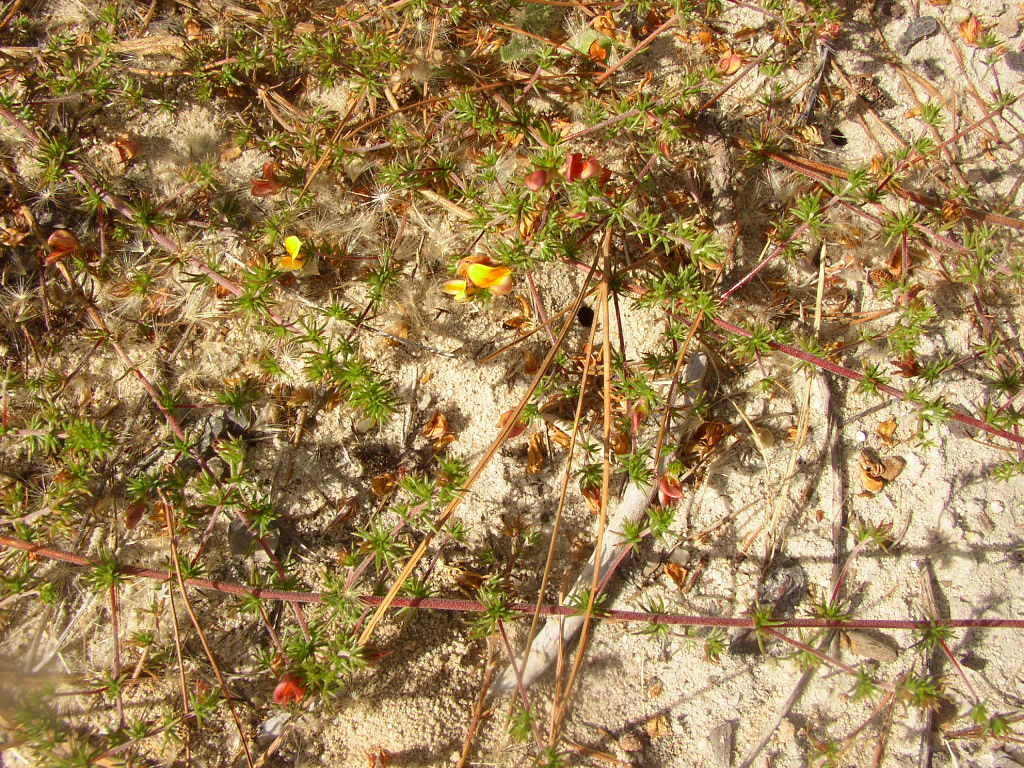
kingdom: Plantae
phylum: Tracheophyta
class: Magnoliopsida
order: Fabales
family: Fabaceae
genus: Aspalathus
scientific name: Aspalathus retroflexa
